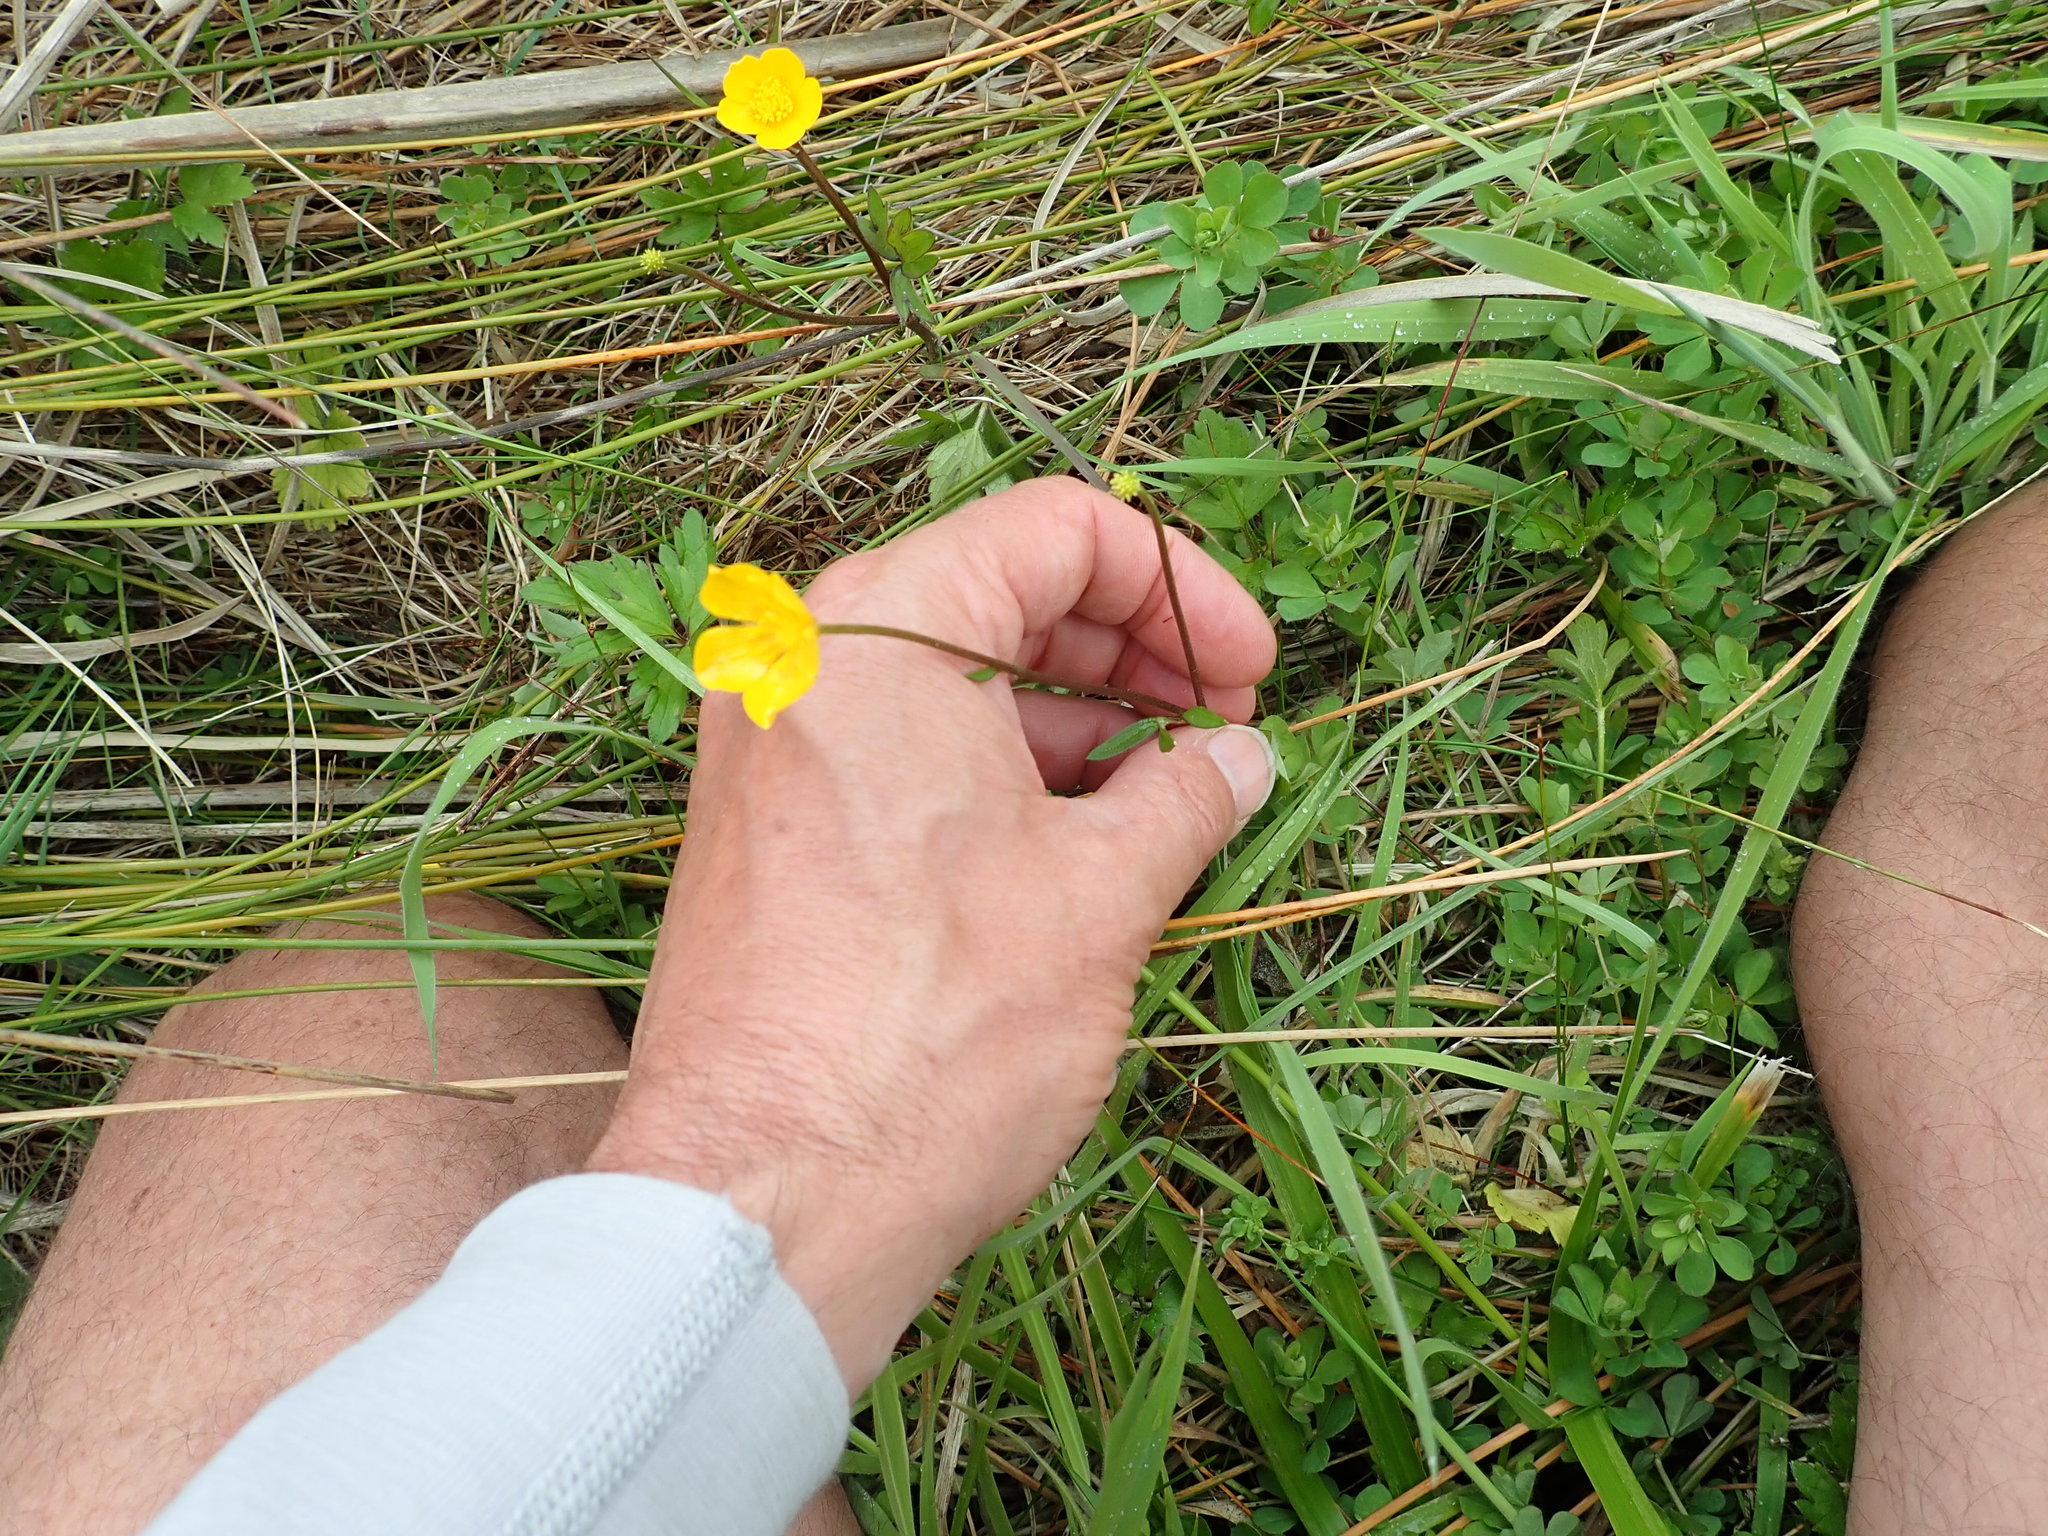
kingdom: Plantae
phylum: Tracheophyta
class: Magnoliopsida
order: Ranunculales
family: Ranunculaceae
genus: Ranunculus
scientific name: Ranunculus repens
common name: Creeping buttercup
